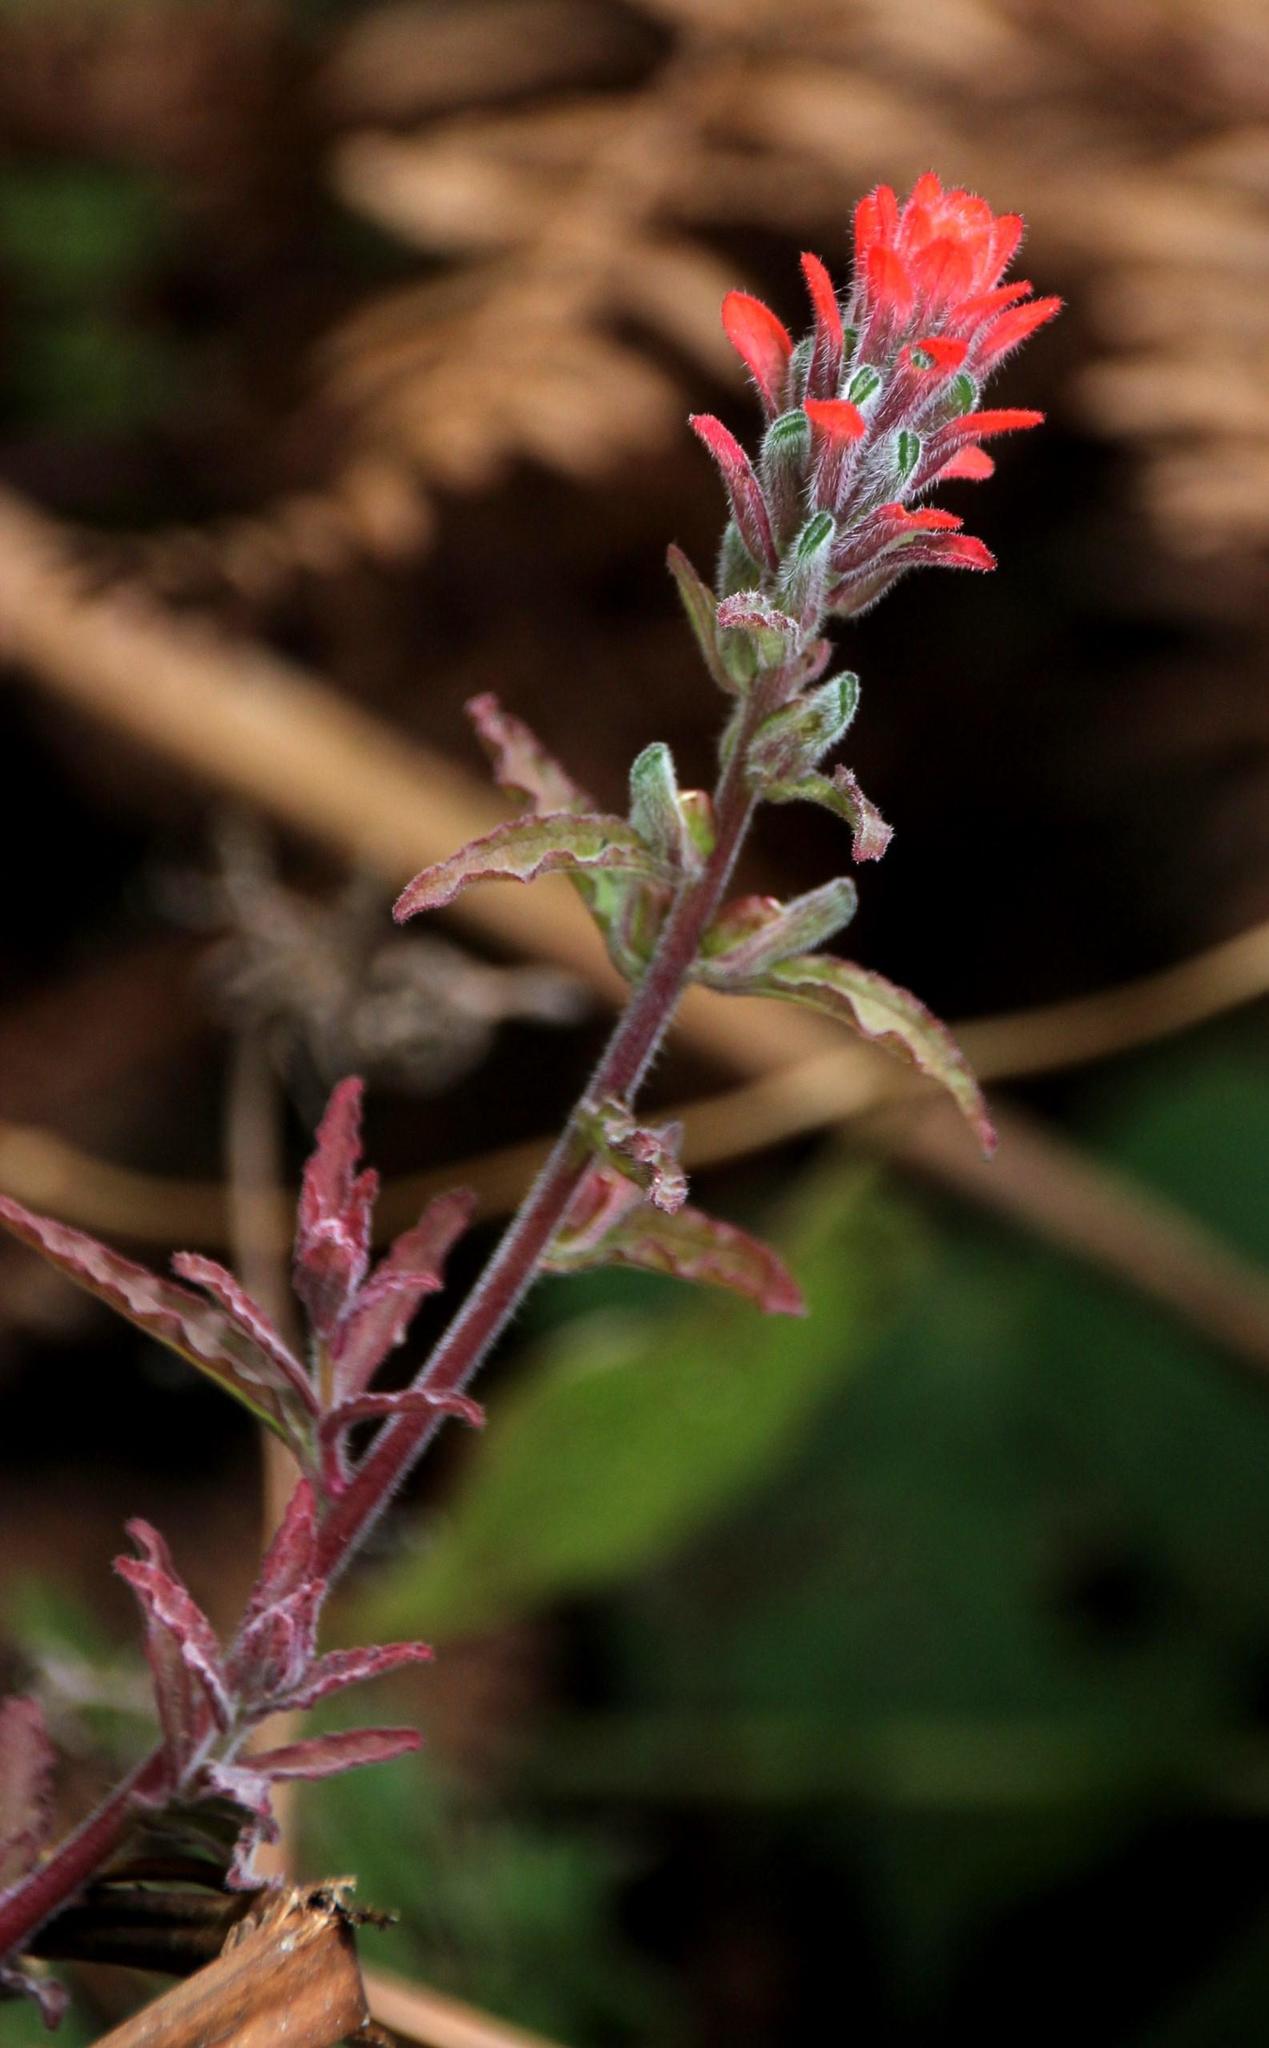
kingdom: Plantae
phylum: Tracheophyta
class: Magnoliopsida
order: Lamiales
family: Orobanchaceae
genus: Castilleja
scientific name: Castilleja arvensis
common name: Indian paintbrush
